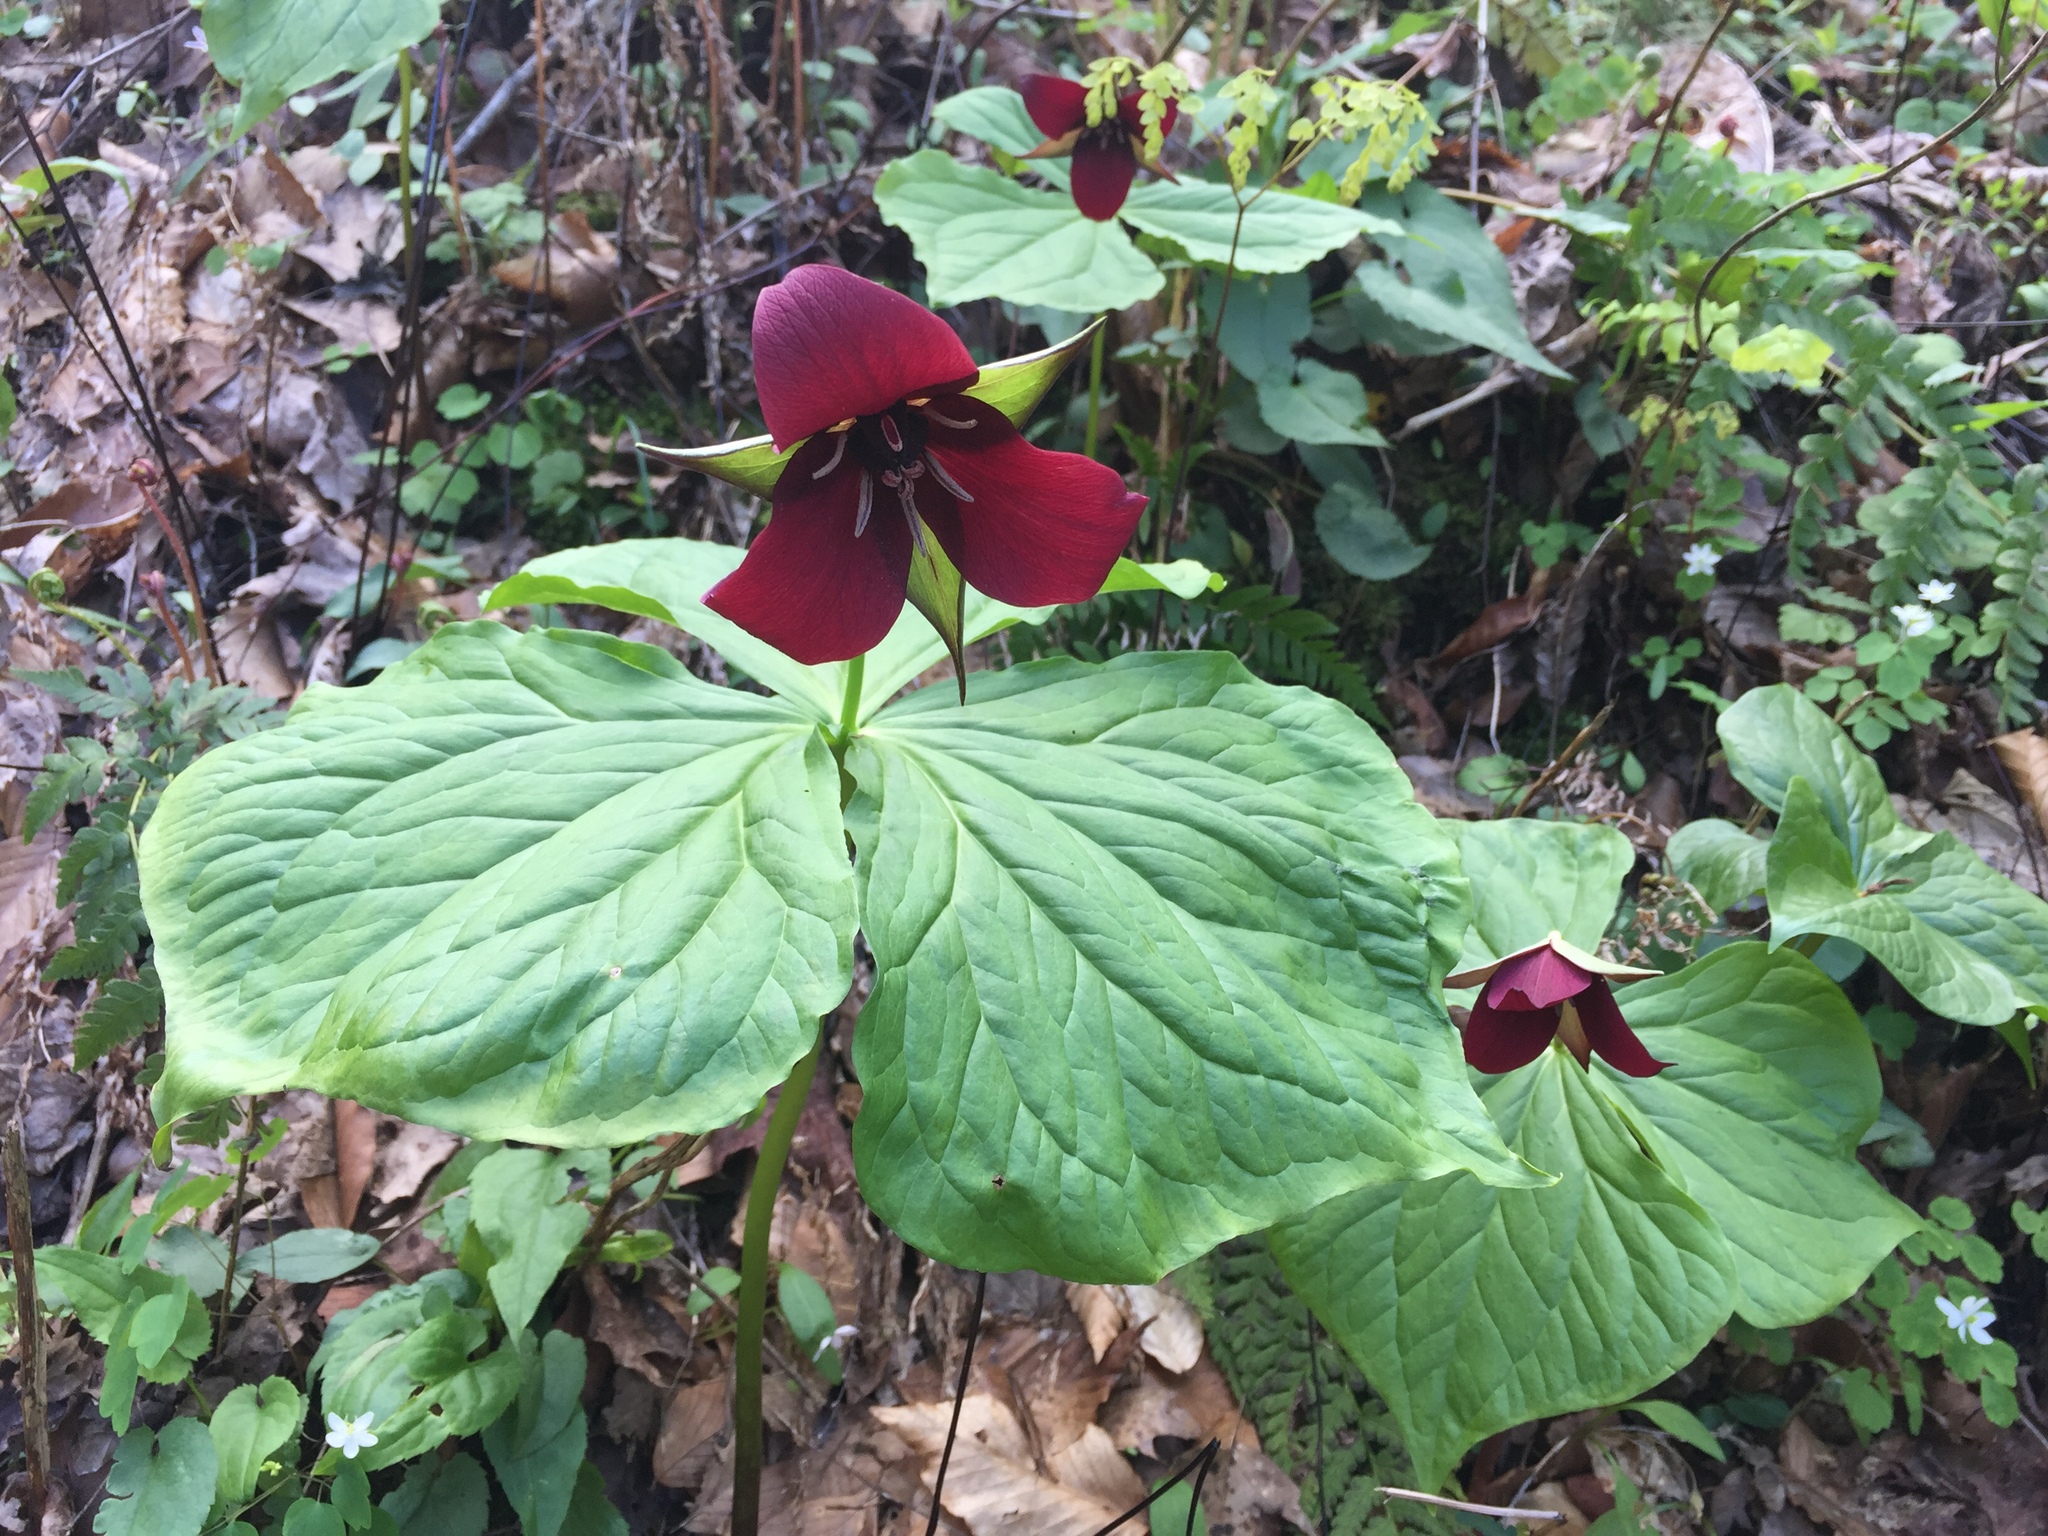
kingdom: Plantae
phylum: Tracheophyta
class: Liliopsida
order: Liliales
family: Melanthiaceae
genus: Trillium
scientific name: Trillium sulcatum
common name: Barksdale trillium
